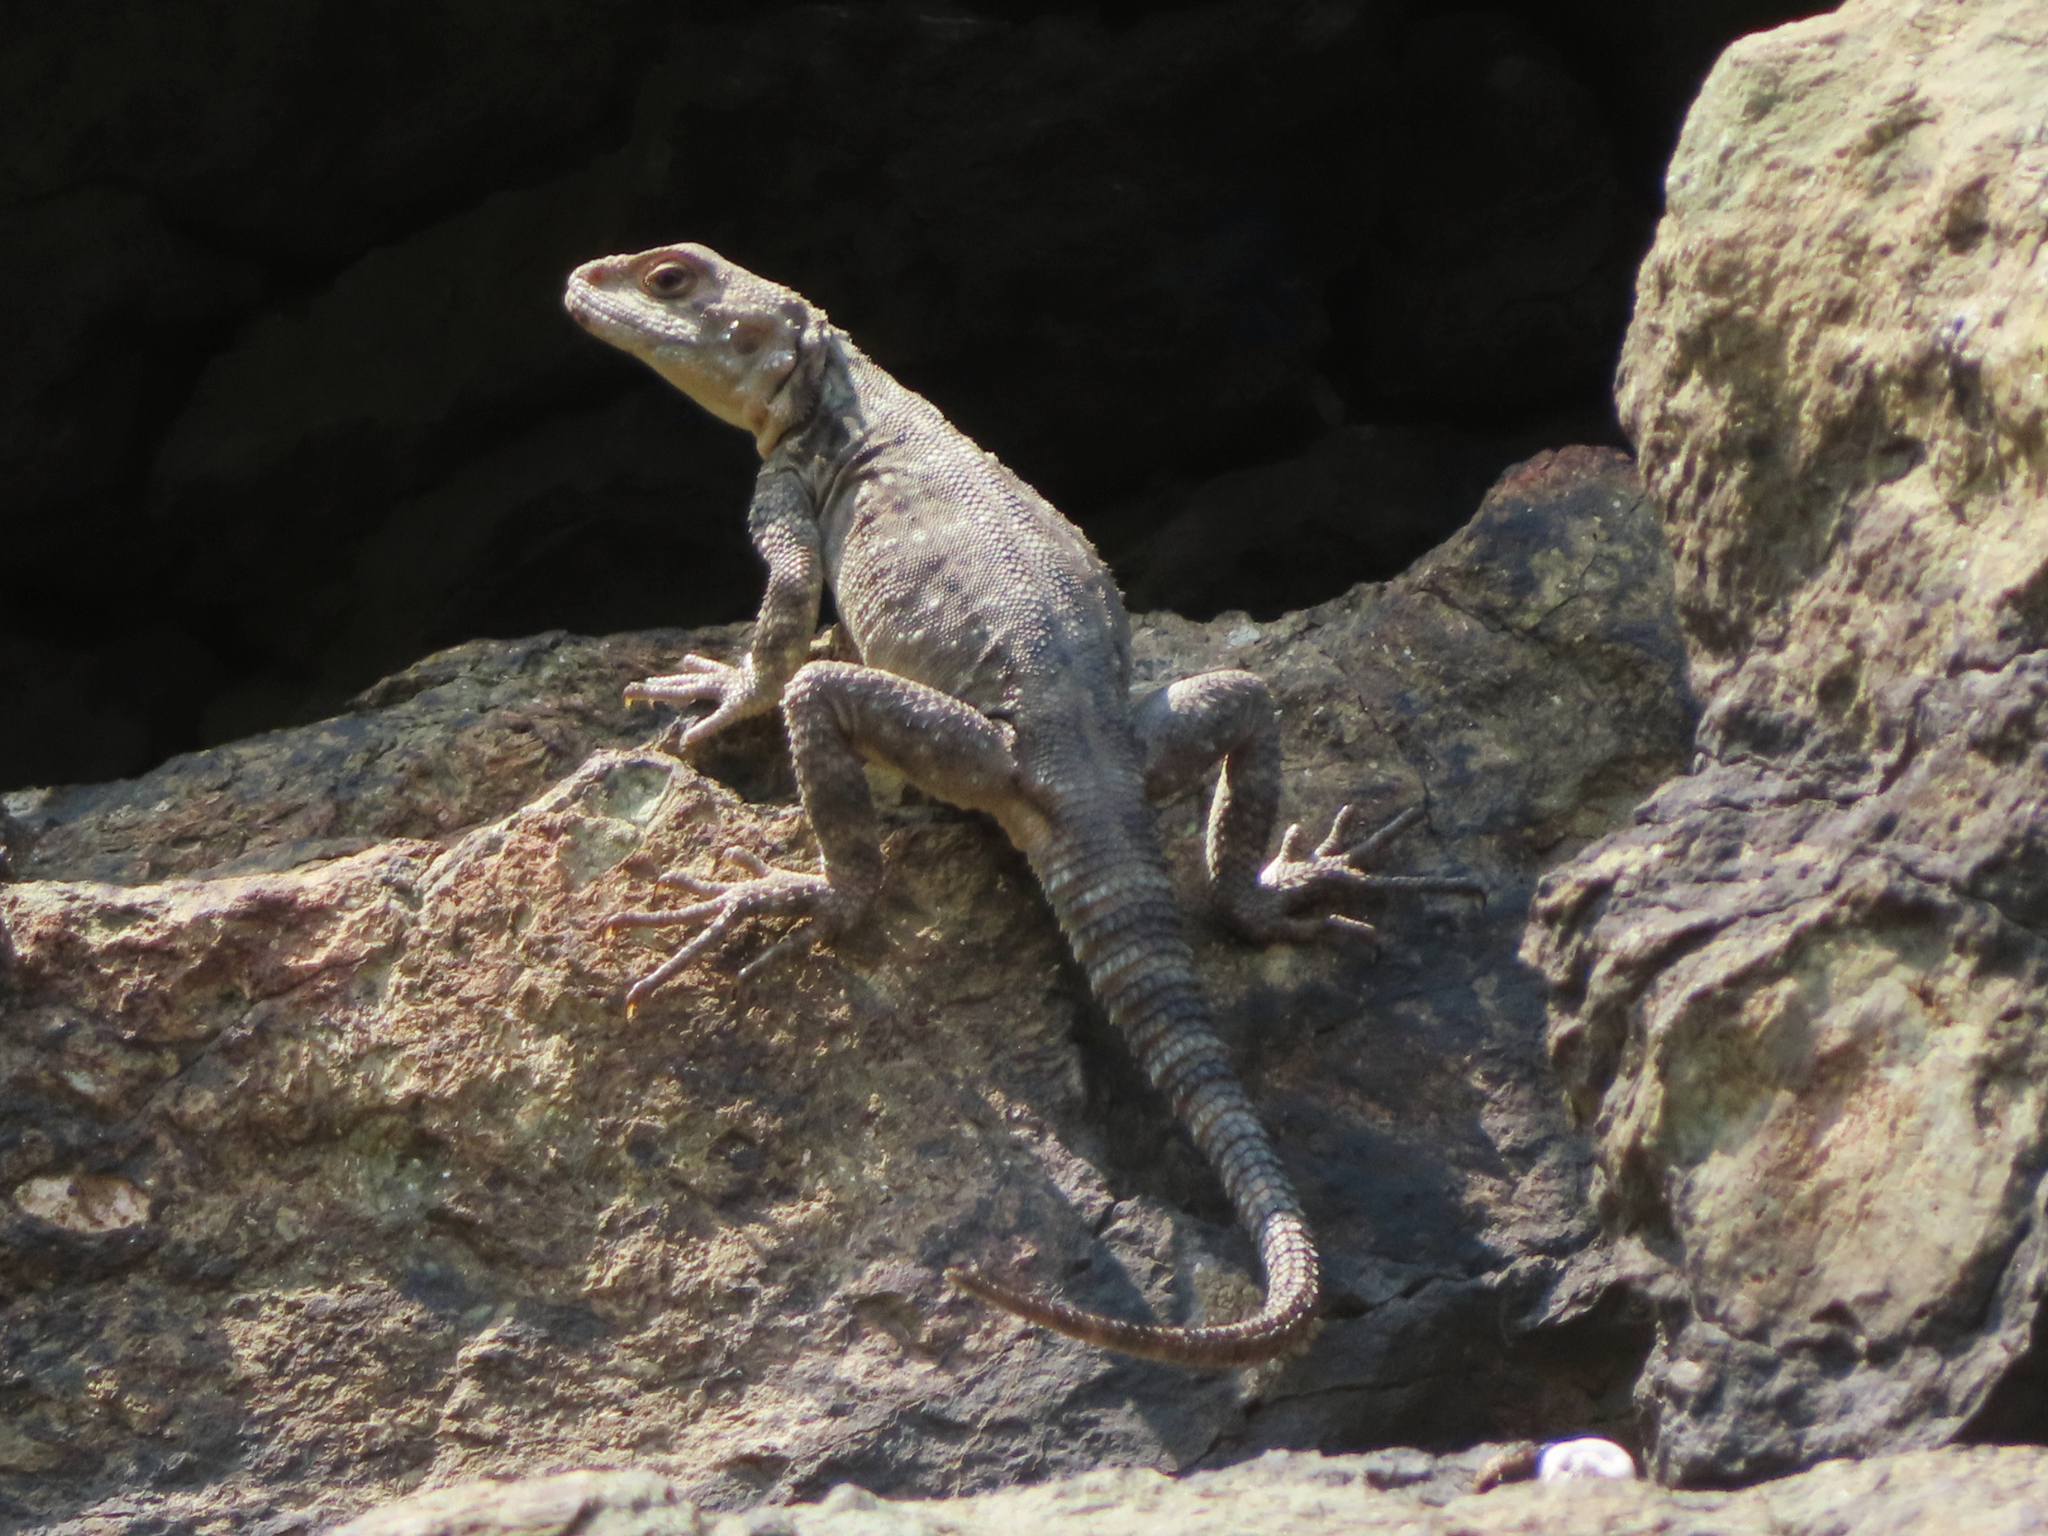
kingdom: Animalia
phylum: Chordata
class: Squamata
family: Agamidae
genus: Paralaudakia
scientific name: Paralaudakia caucasia
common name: Caucasian agama
